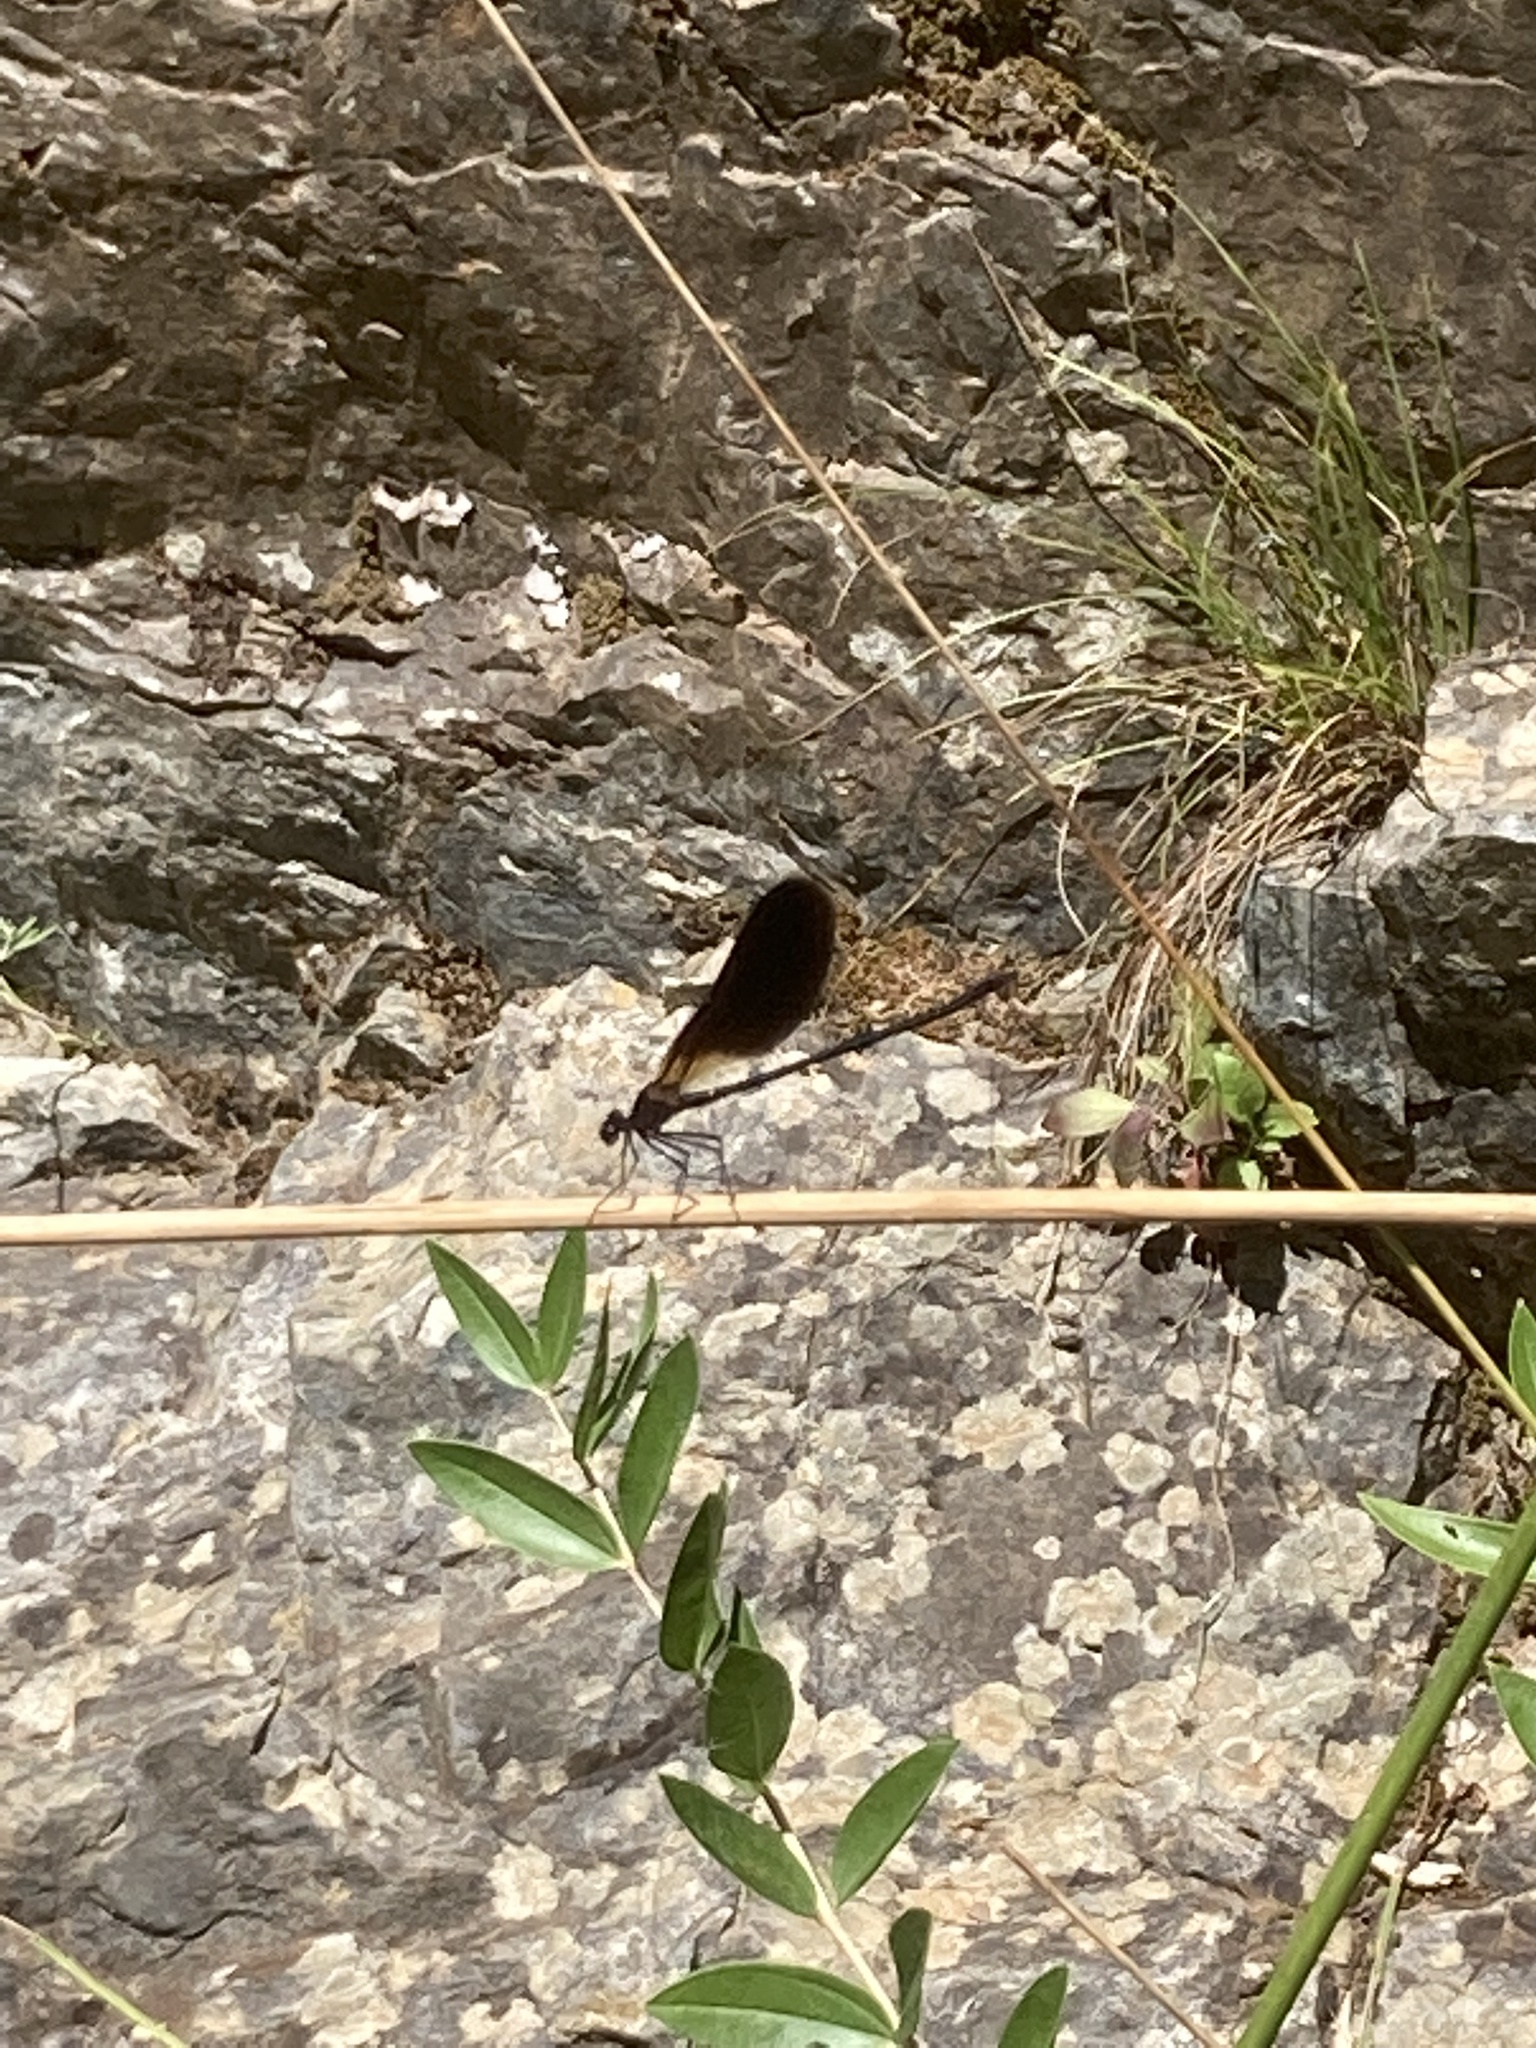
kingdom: Animalia
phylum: Arthropoda
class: Insecta
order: Odonata
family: Calopterygidae
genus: Calopteryx
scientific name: Calopteryx haemorrhoidalis
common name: Copper demoiselle
